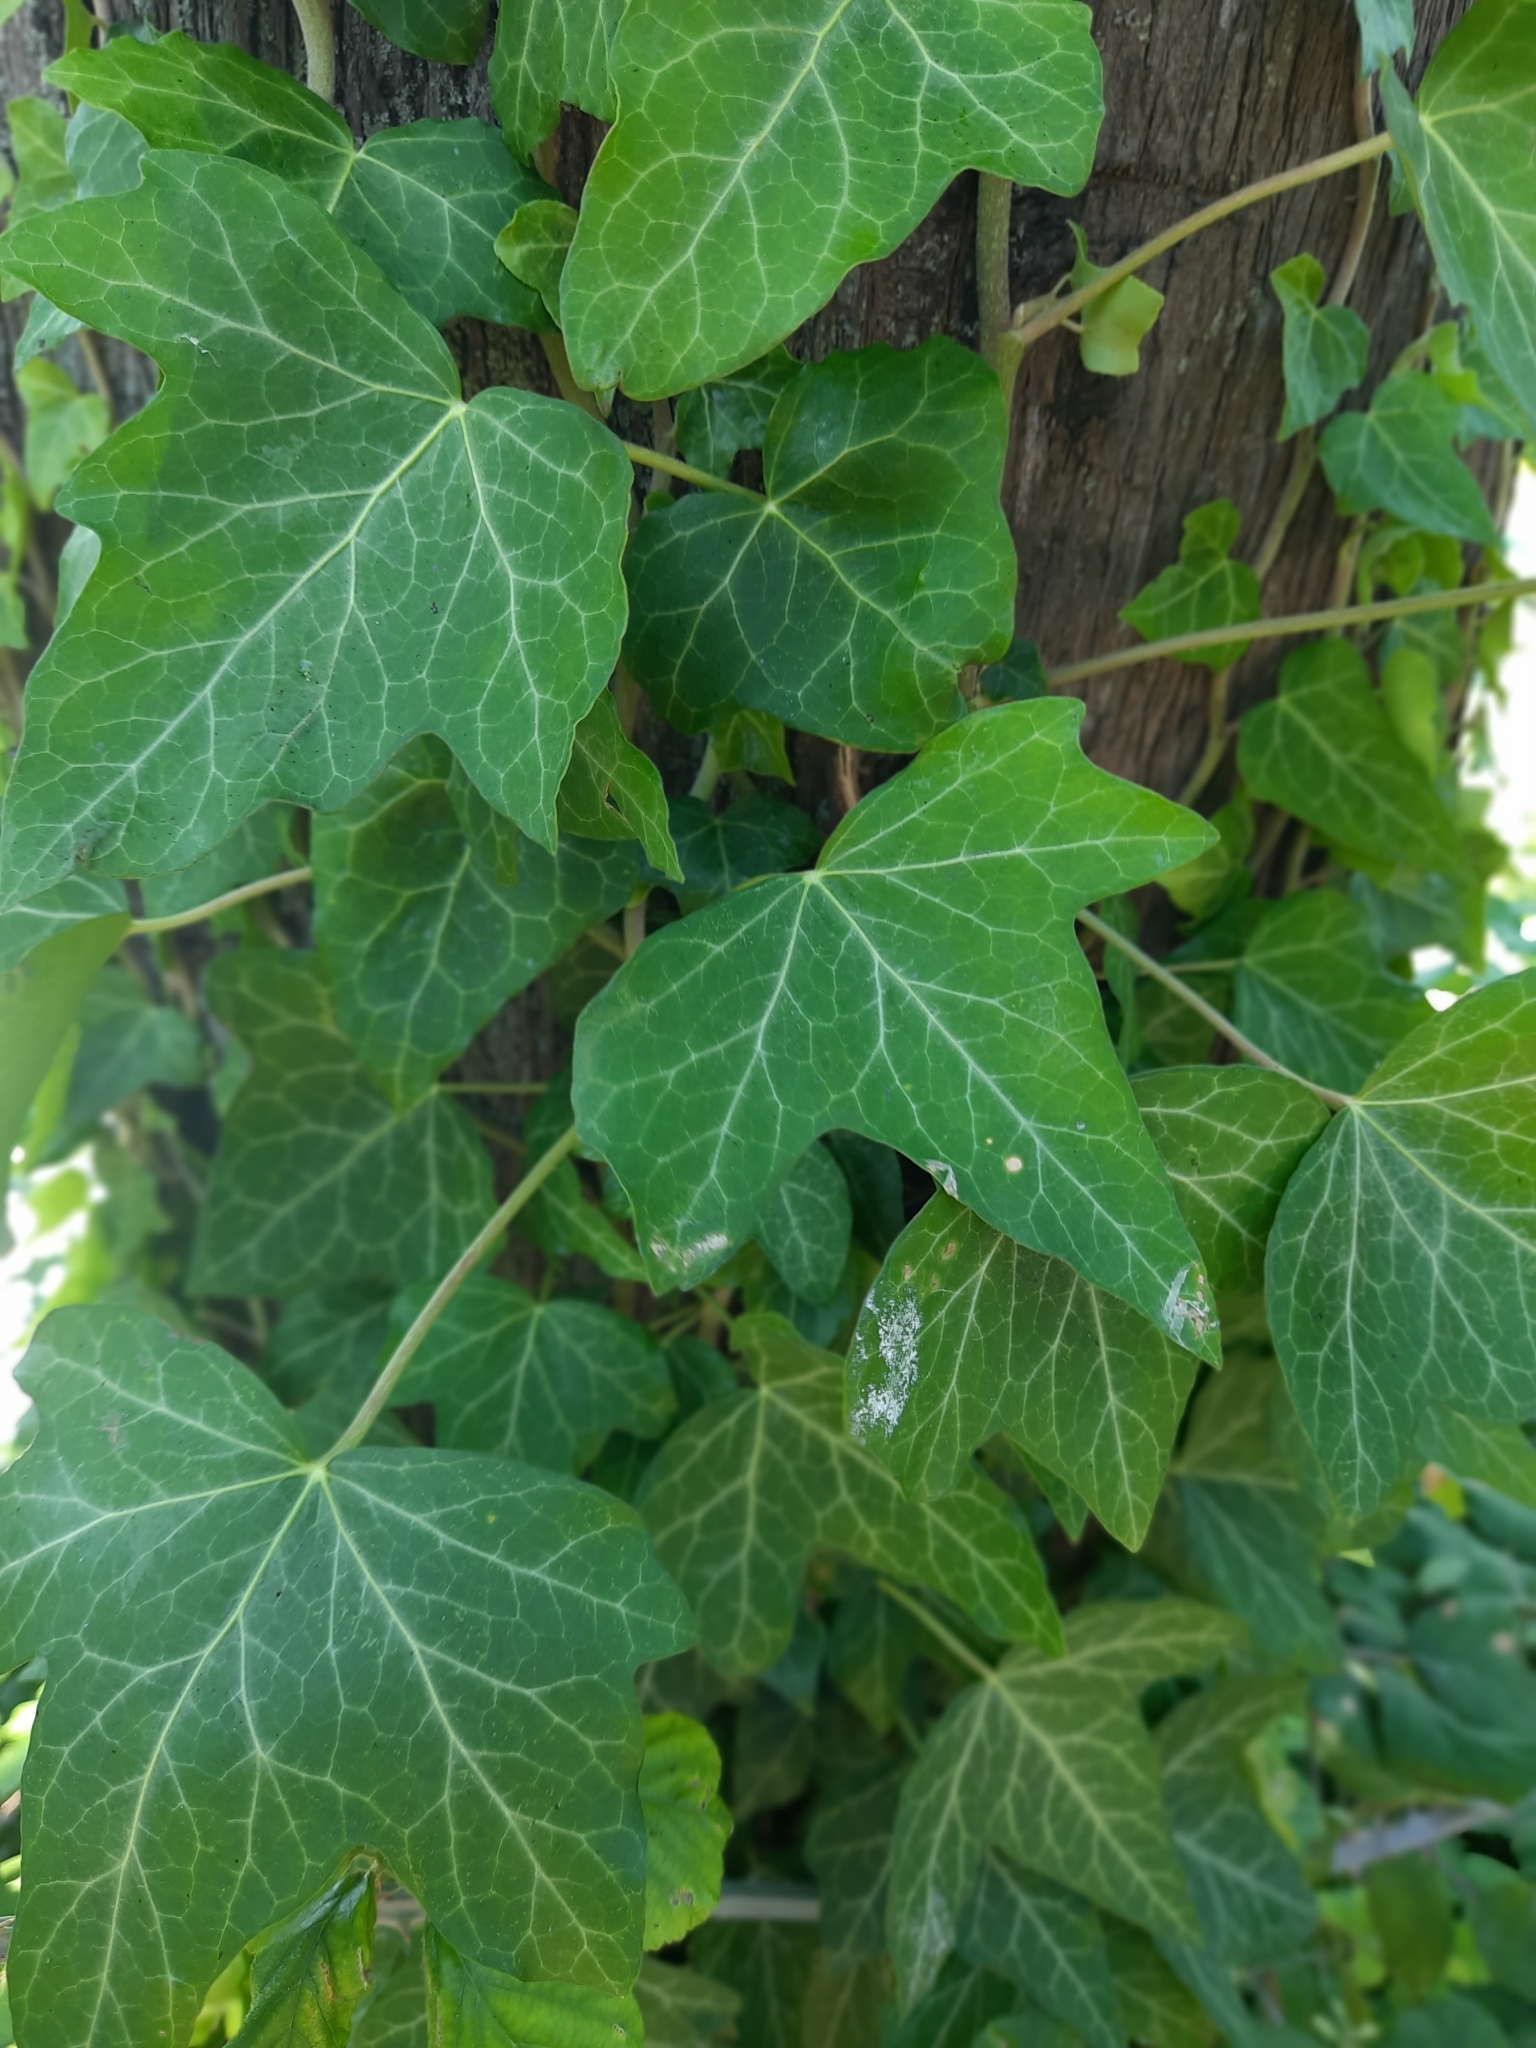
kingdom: Plantae
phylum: Tracheophyta
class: Magnoliopsida
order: Apiales
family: Araliaceae
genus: Hedera
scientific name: Hedera helix
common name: Ivy
